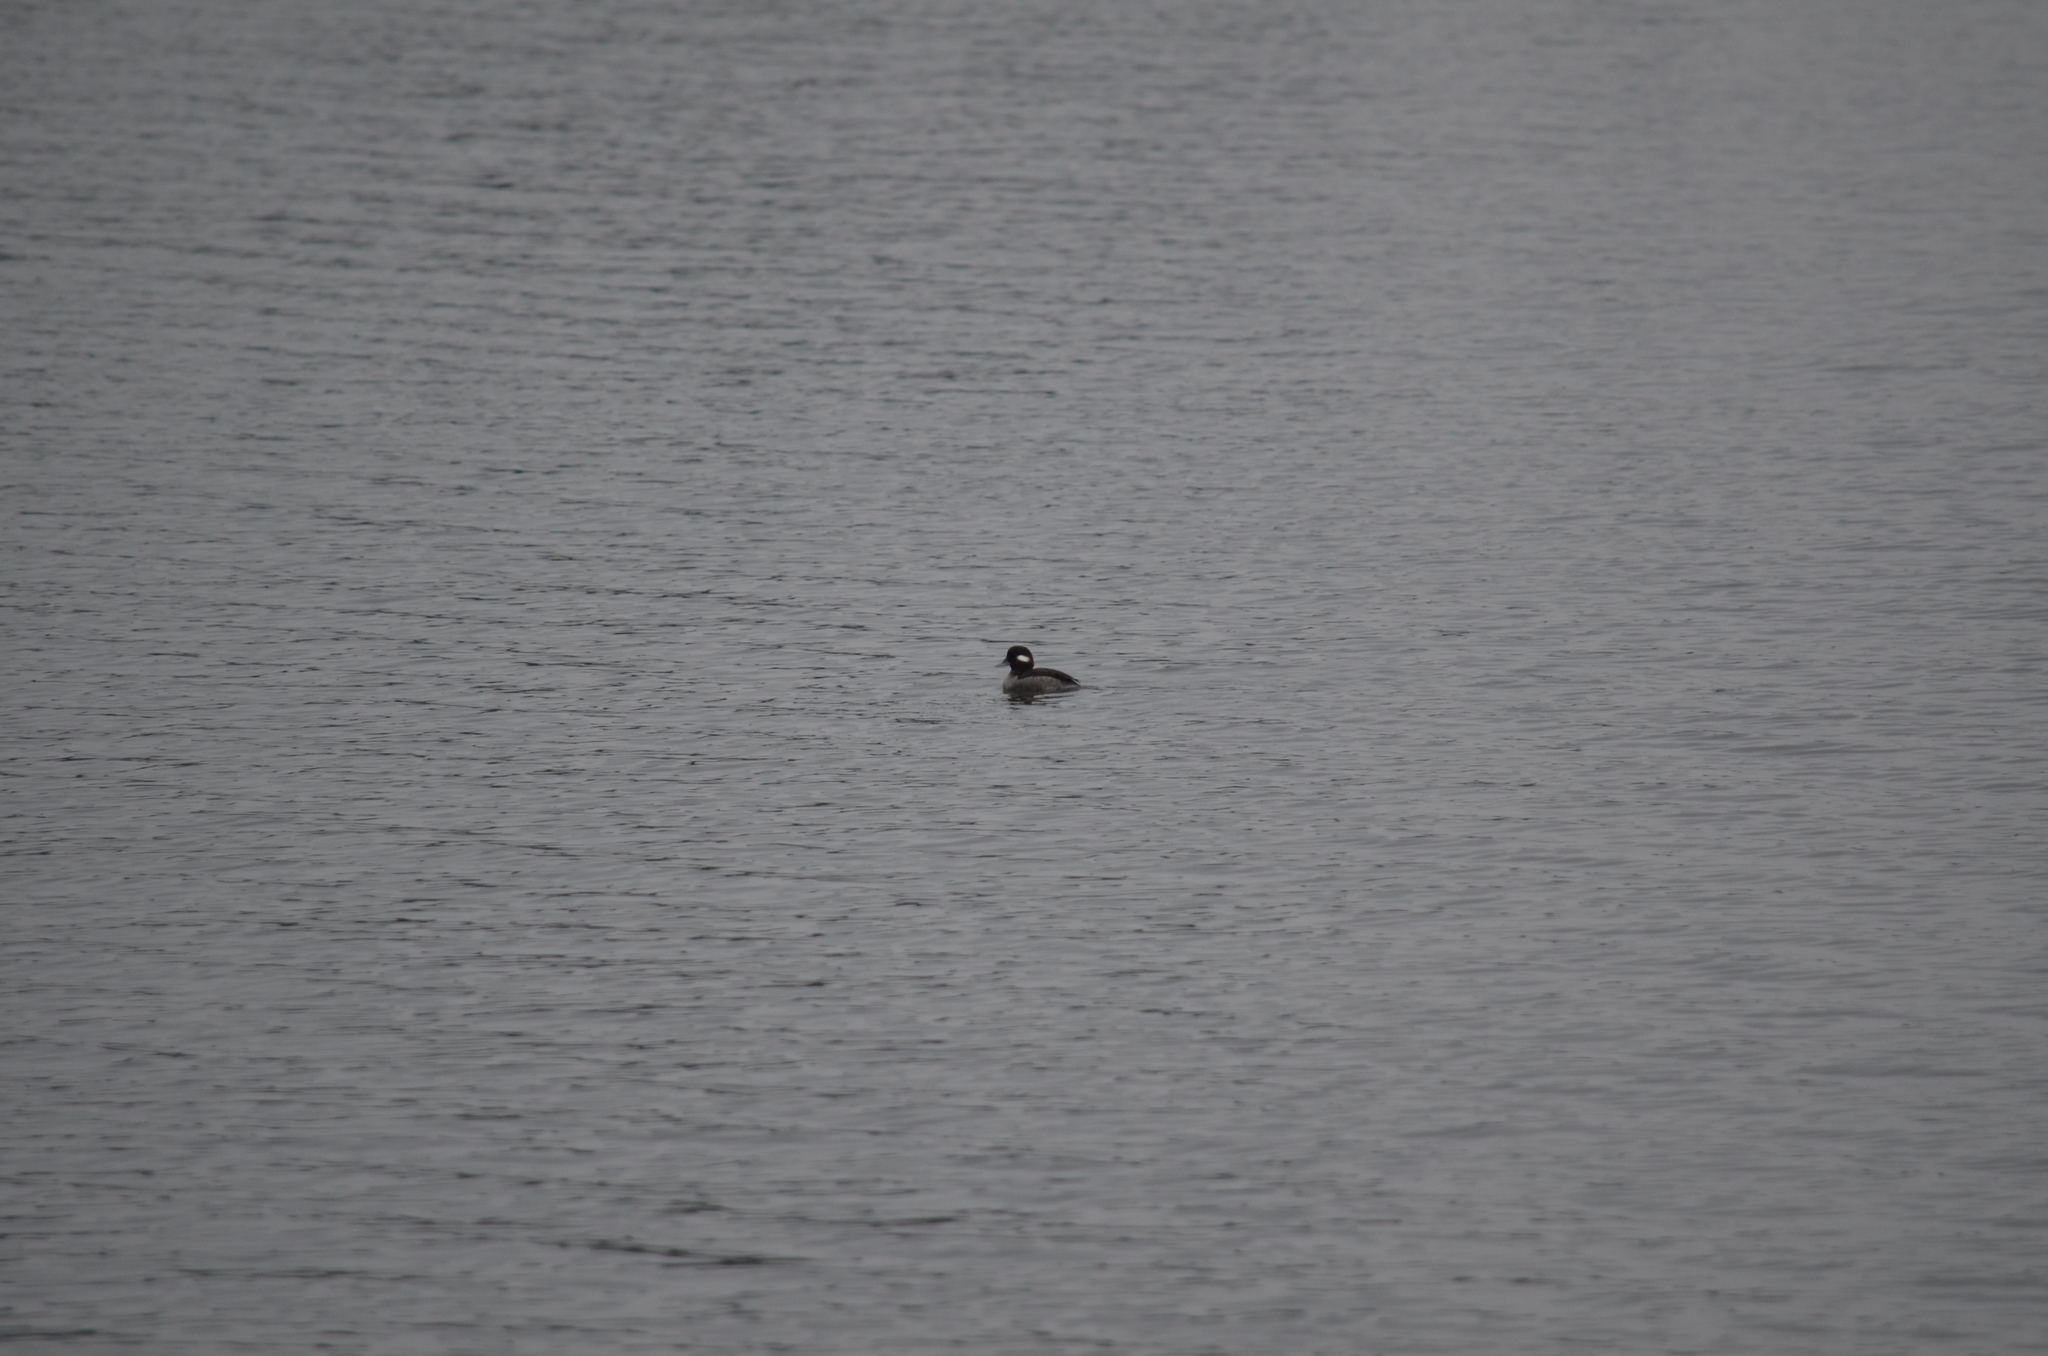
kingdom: Animalia
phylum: Chordata
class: Aves
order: Anseriformes
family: Anatidae
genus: Bucephala
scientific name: Bucephala albeola
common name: Bufflehead
